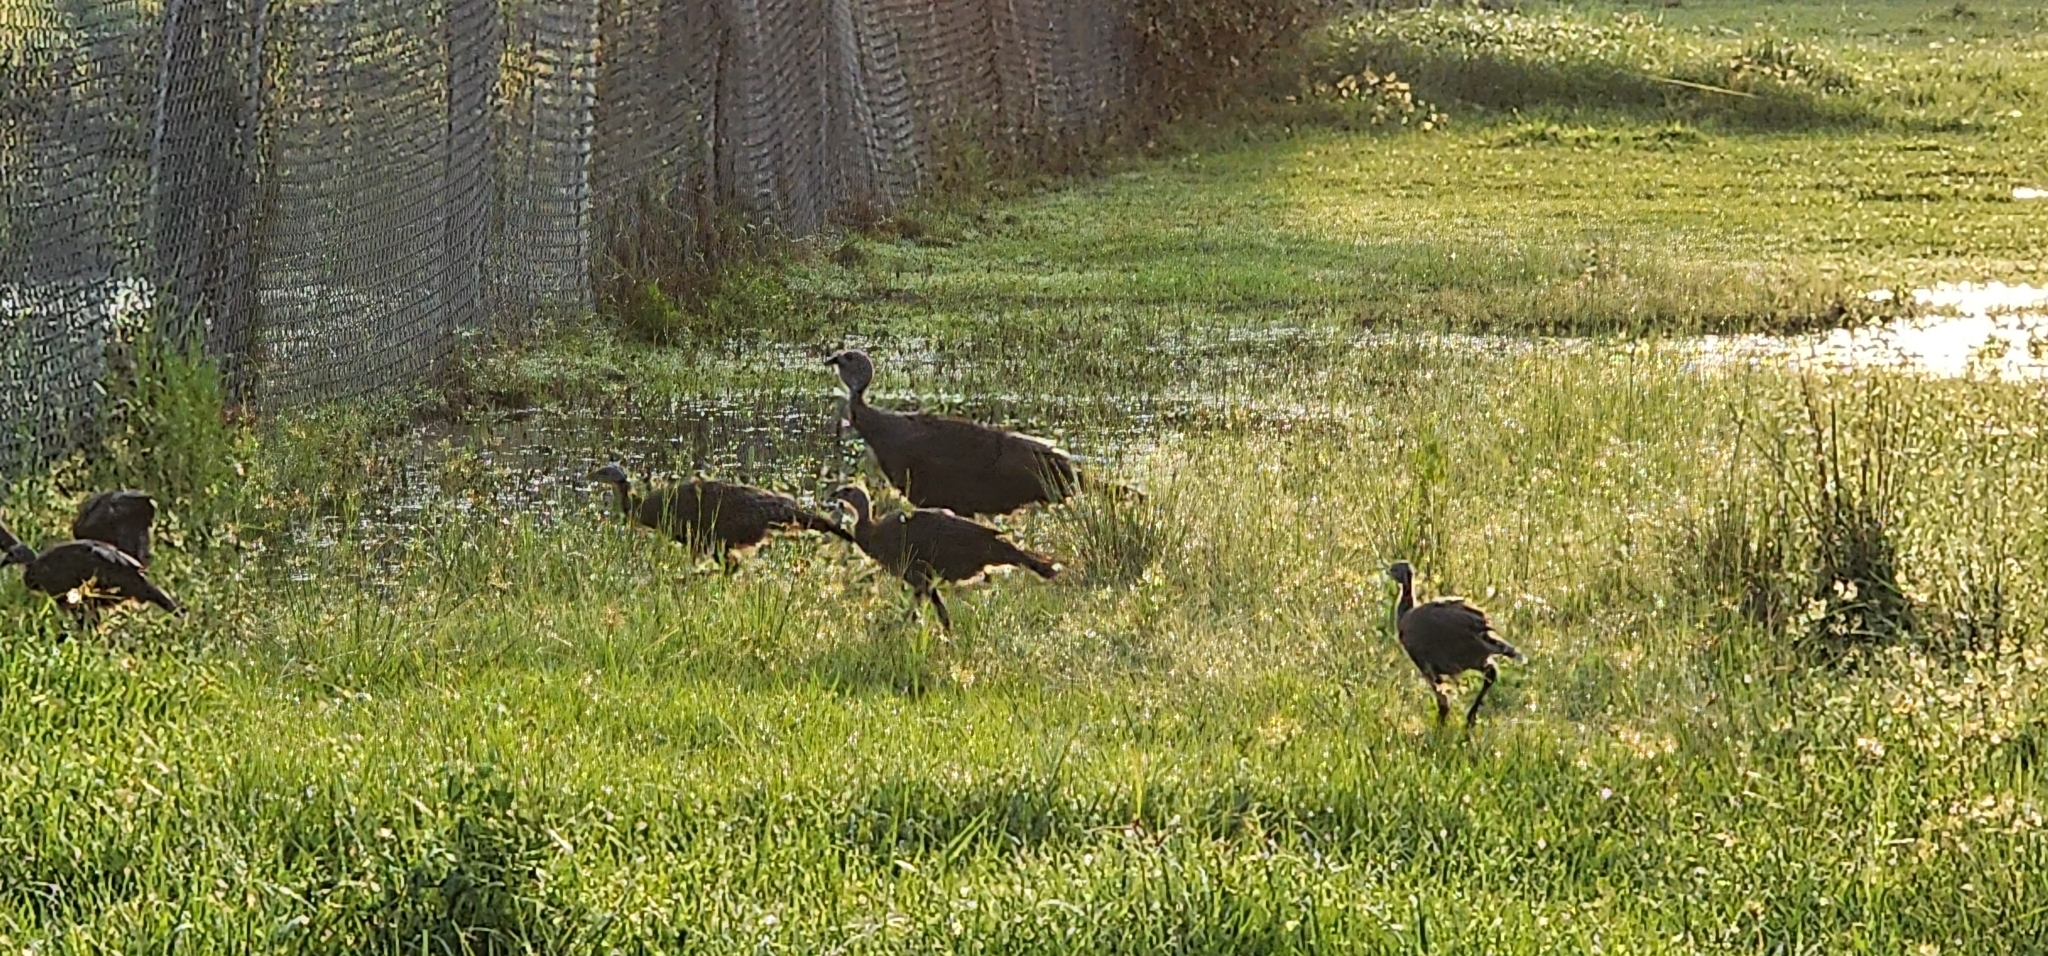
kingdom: Animalia
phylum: Chordata
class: Aves
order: Galliformes
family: Phasianidae
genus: Meleagris
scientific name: Meleagris gallopavo
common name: Wild turkey
